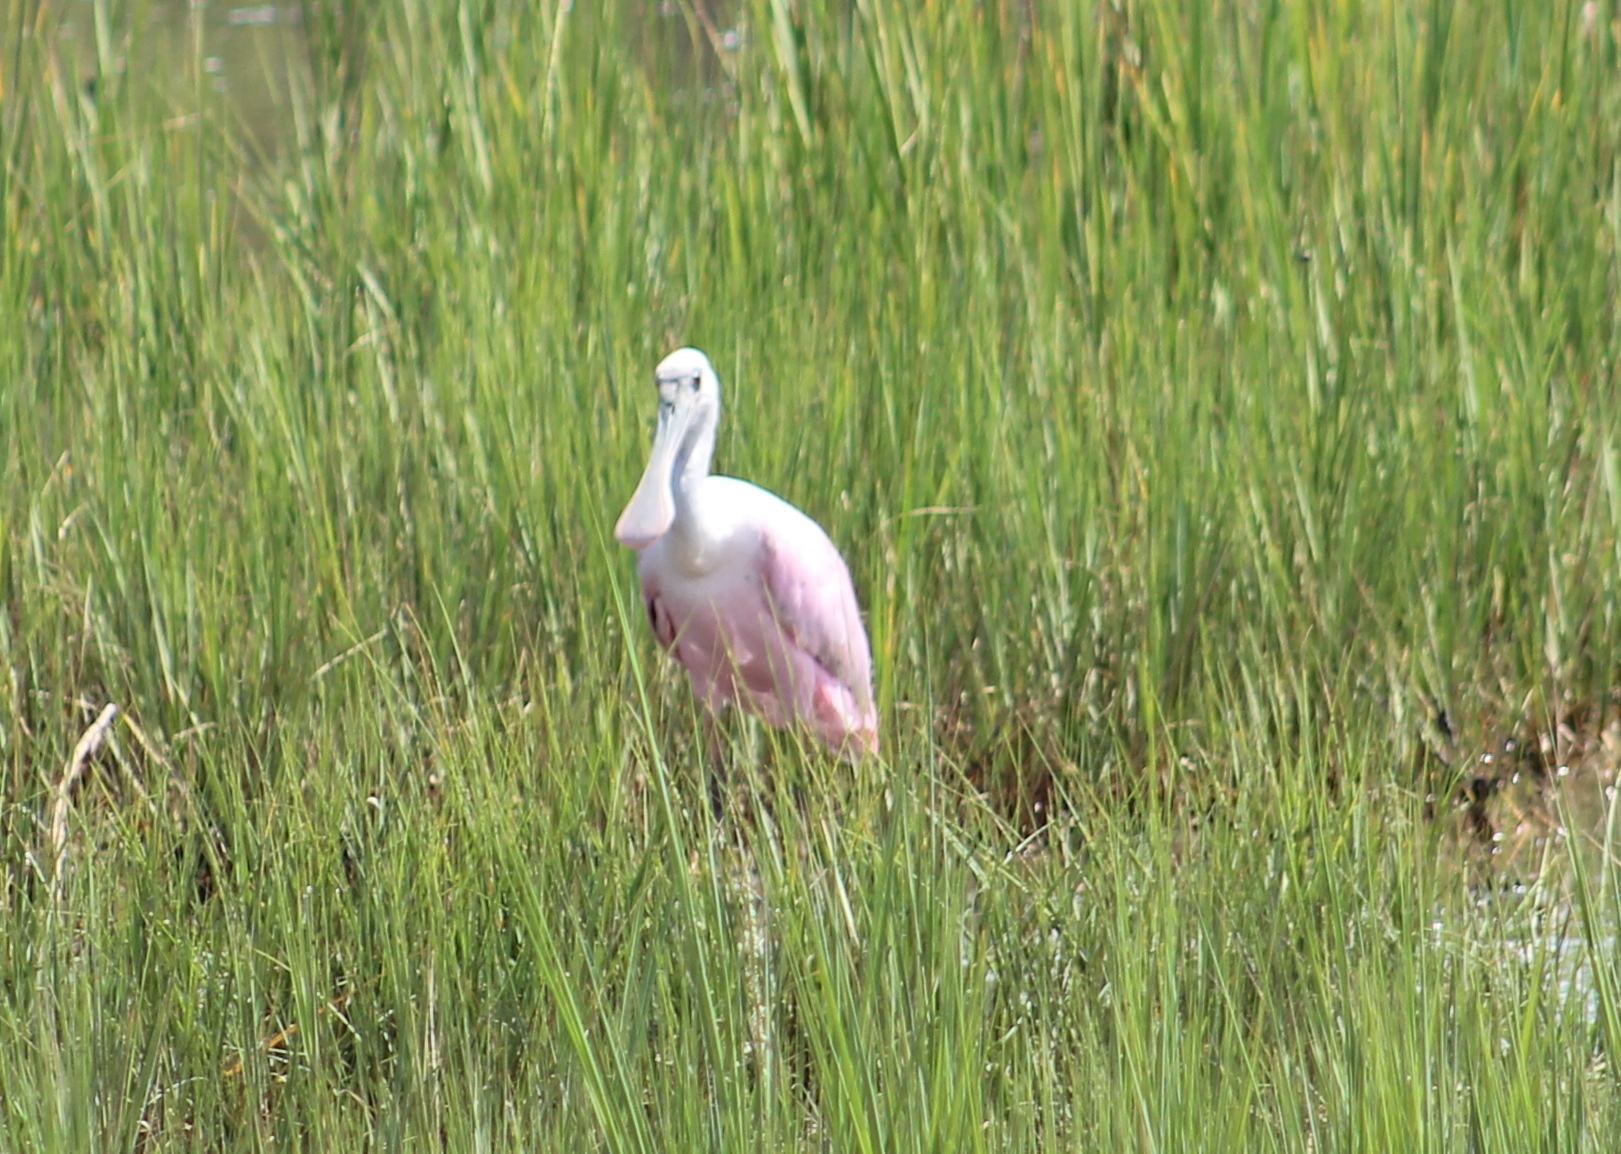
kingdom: Animalia
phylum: Chordata
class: Aves
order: Pelecaniformes
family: Threskiornithidae
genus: Platalea
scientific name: Platalea ajaja
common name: Roseate spoonbill
